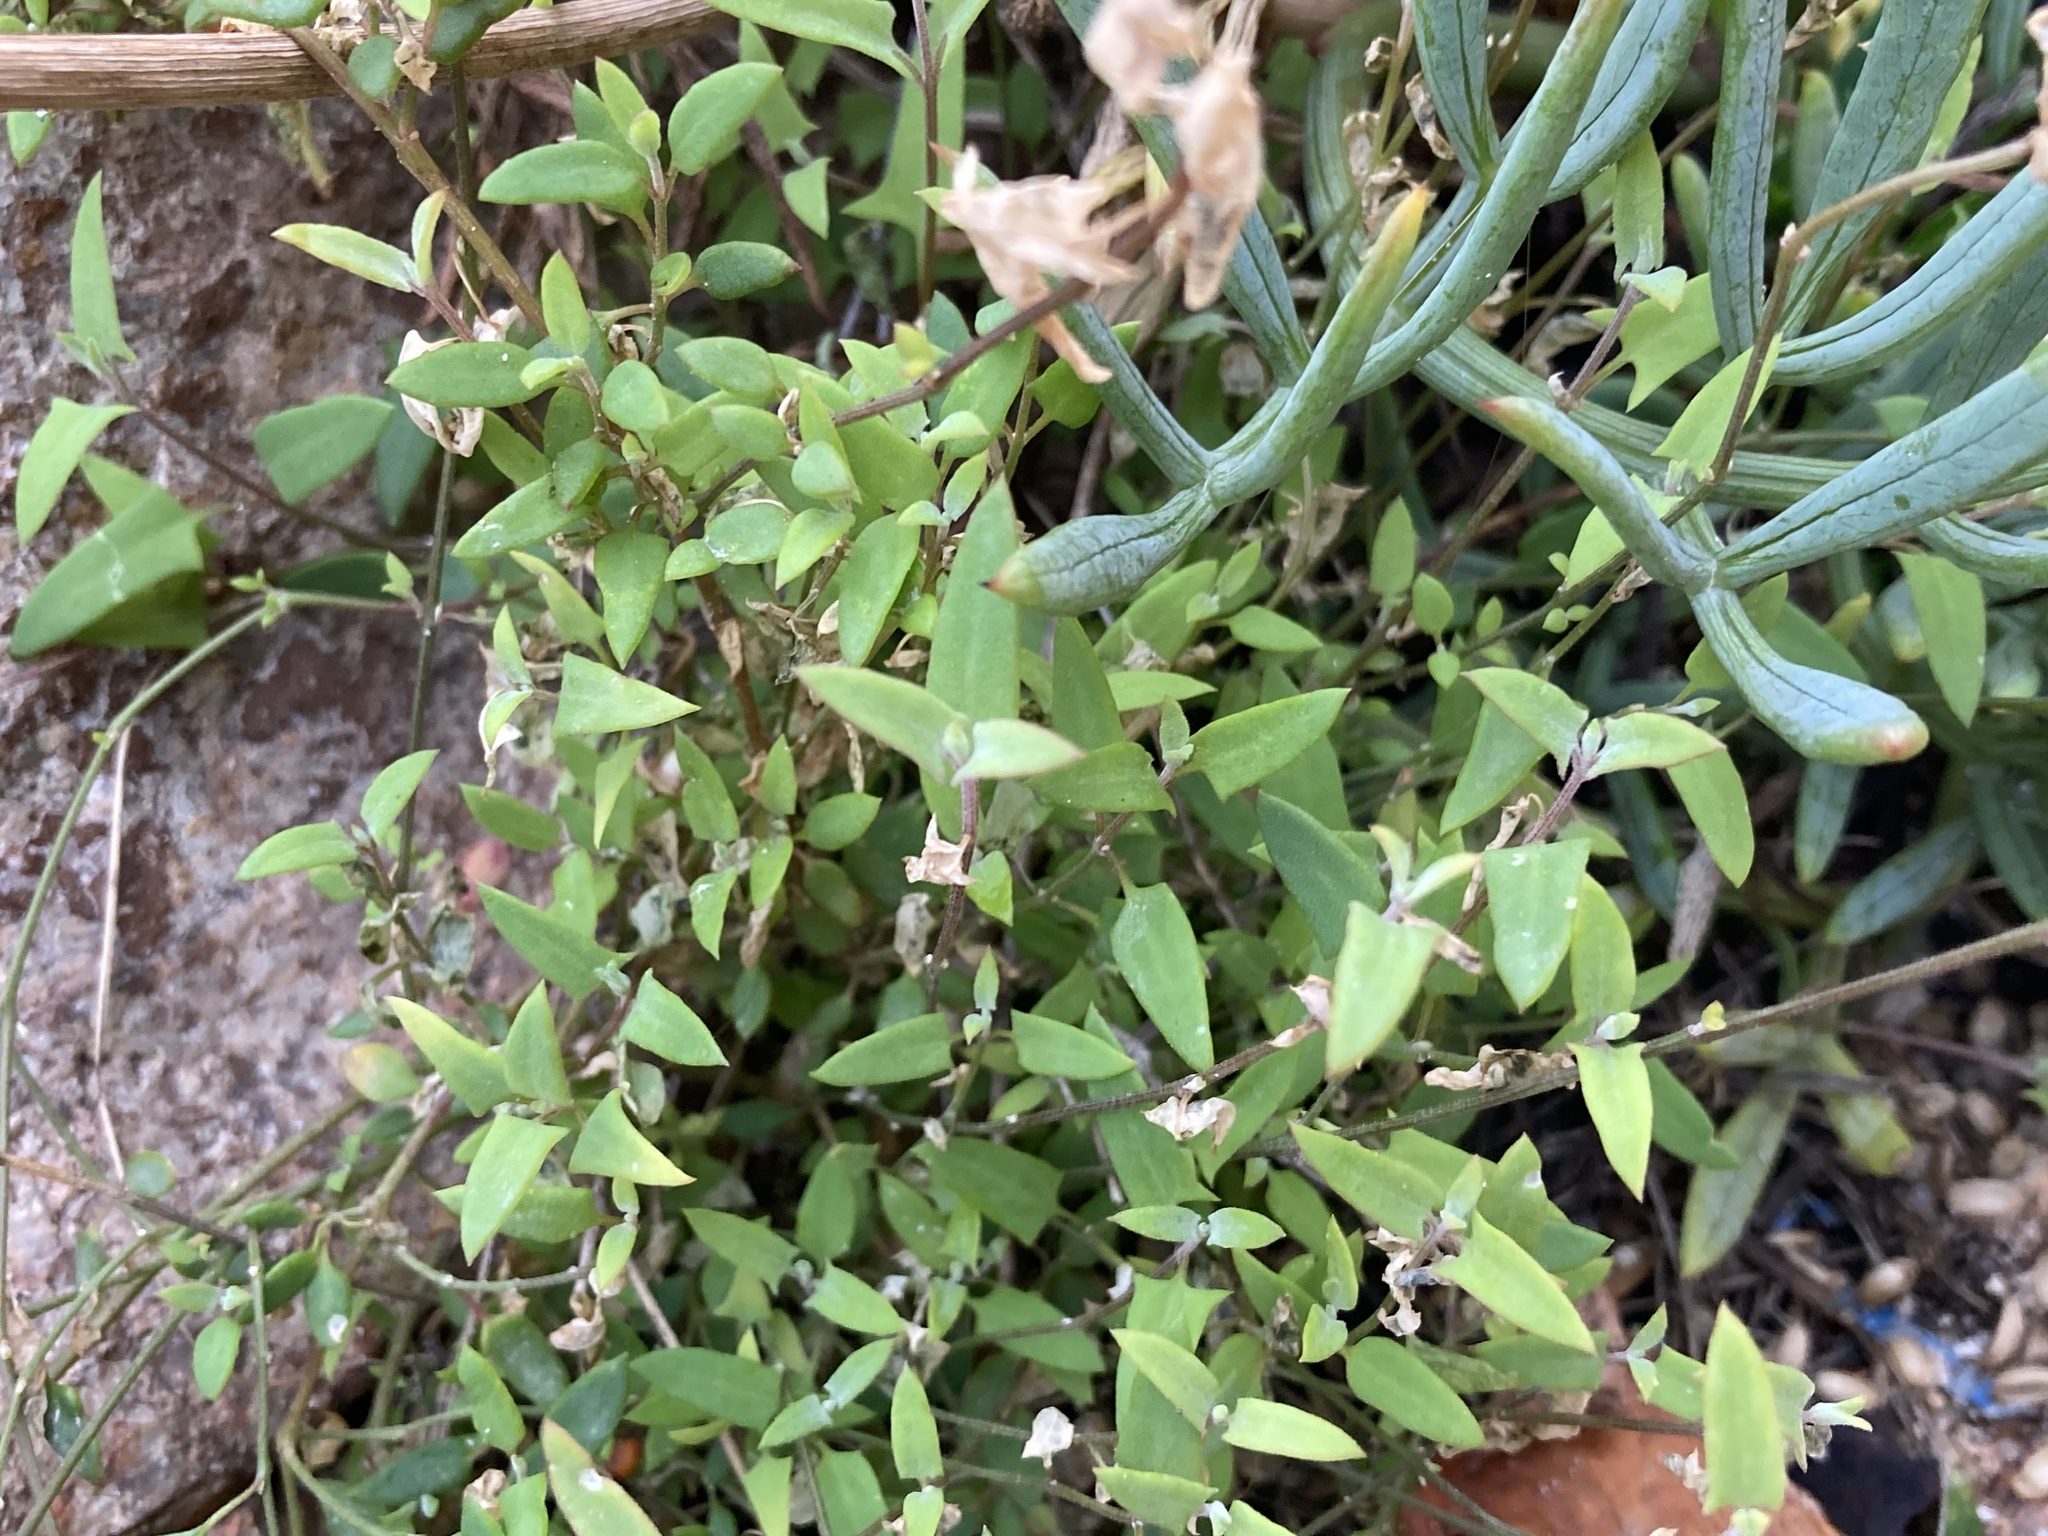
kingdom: Plantae
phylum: Tracheophyta
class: Magnoliopsida
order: Caryophyllales
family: Amaranthaceae
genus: Chenopodium
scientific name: Chenopodium nutans
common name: Climbing-saltbush
